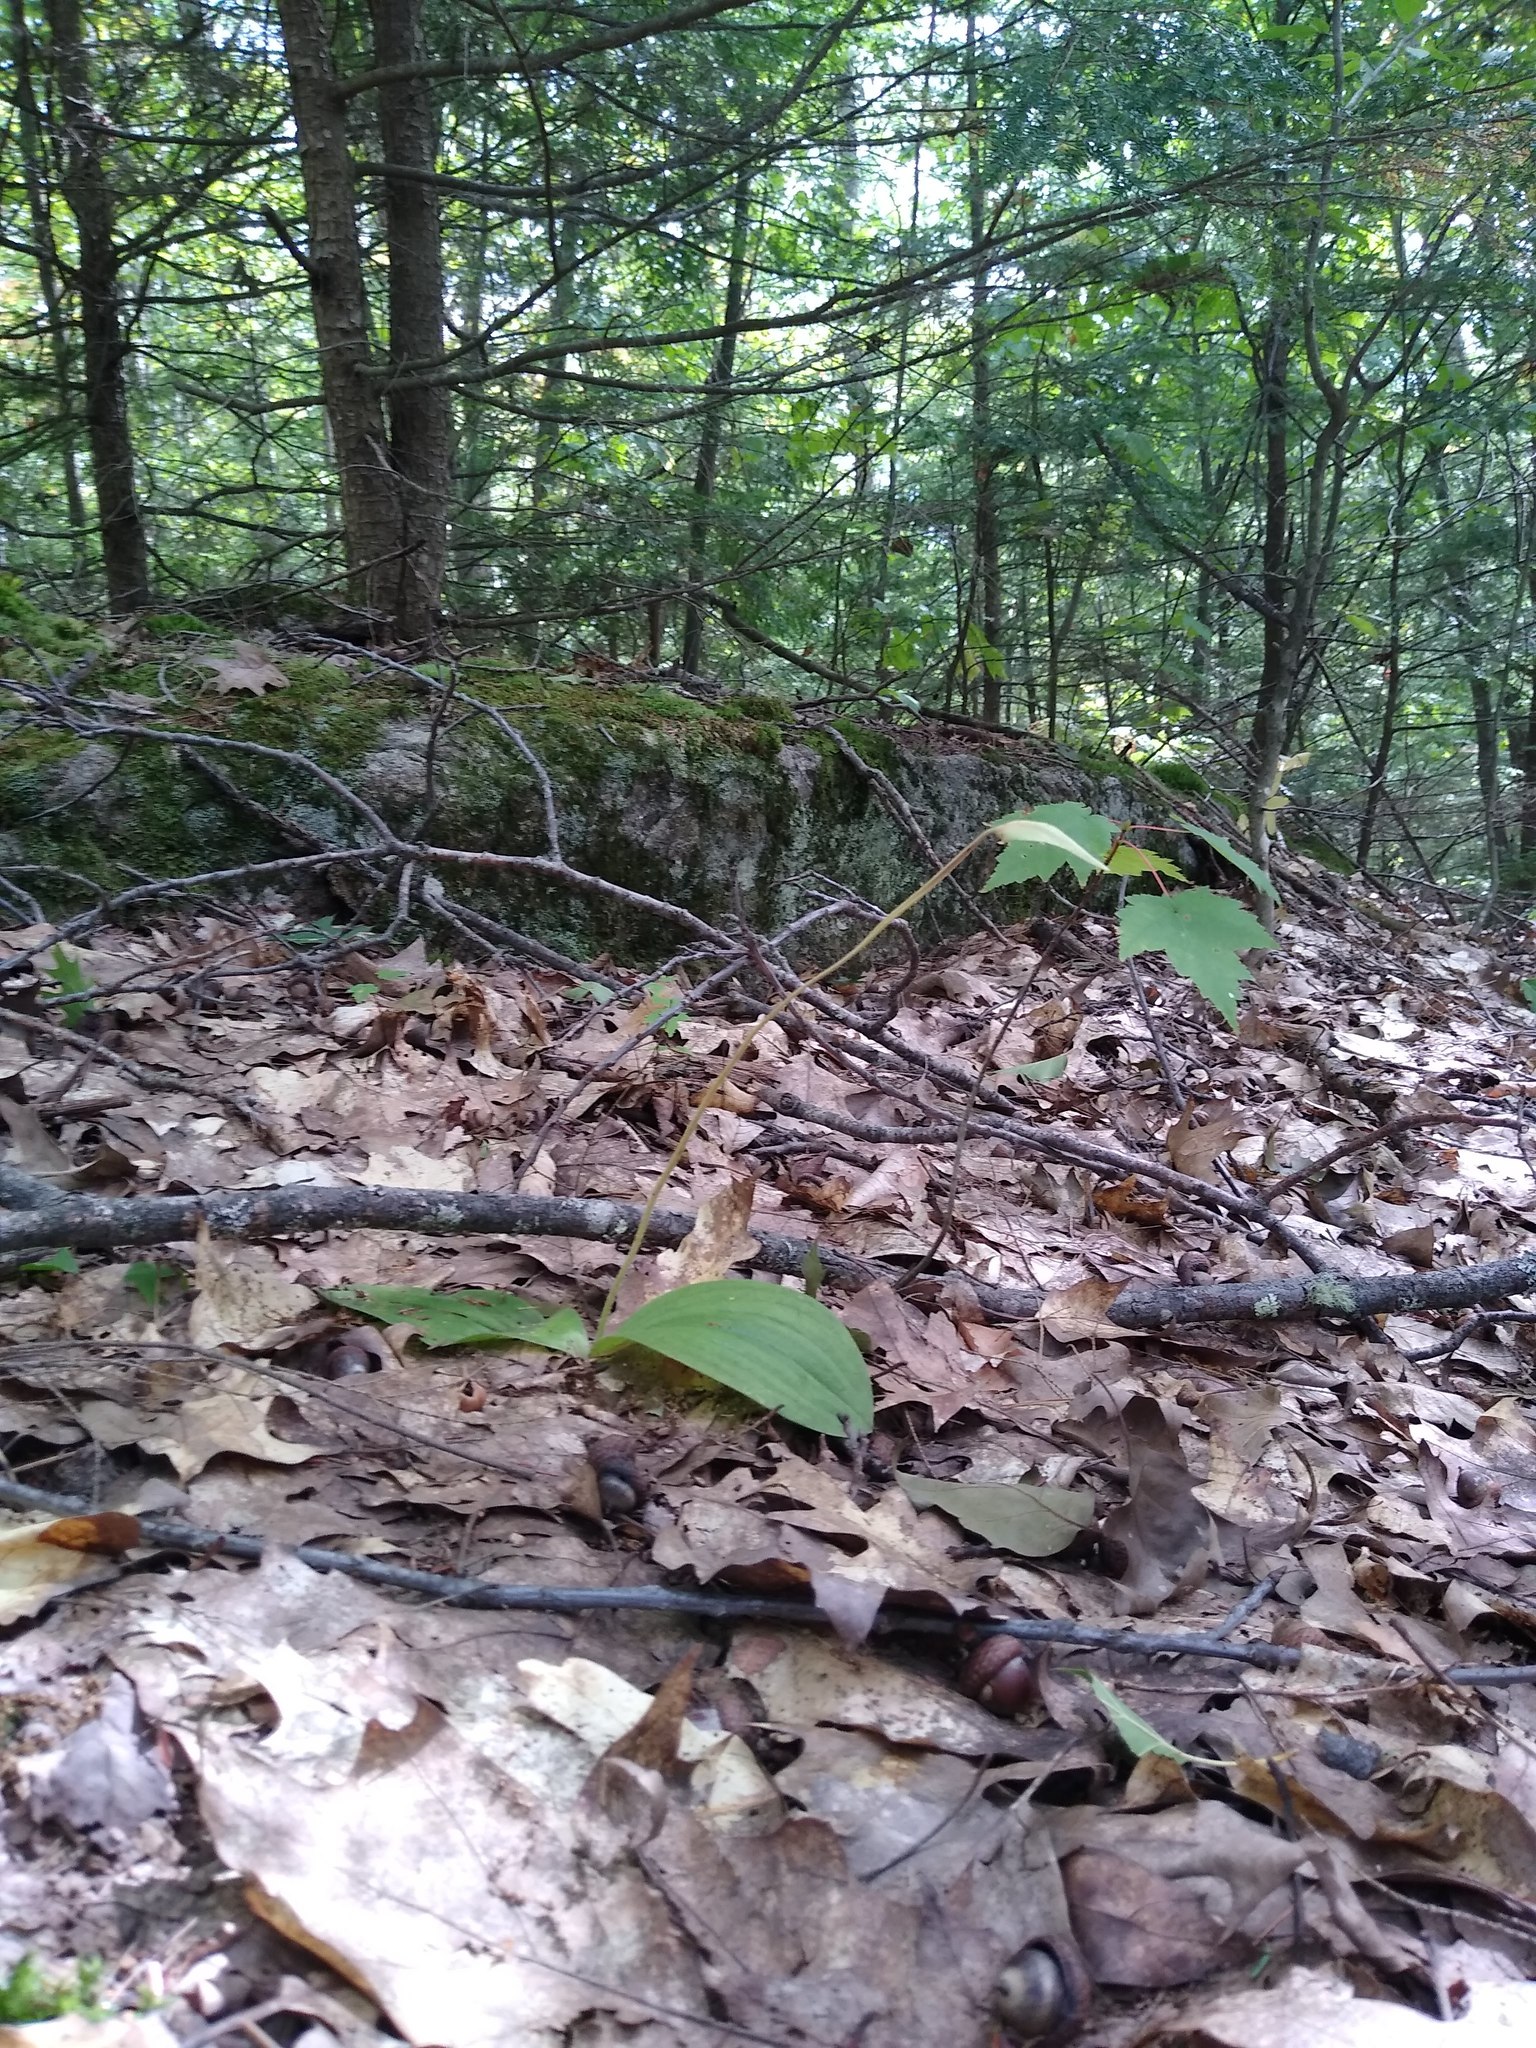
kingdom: Plantae
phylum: Tracheophyta
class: Liliopsida
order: Asparagales
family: Orchidaceae
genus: Cypripedium
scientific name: Cypripedium acaule
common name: Pink lady's-slipper
